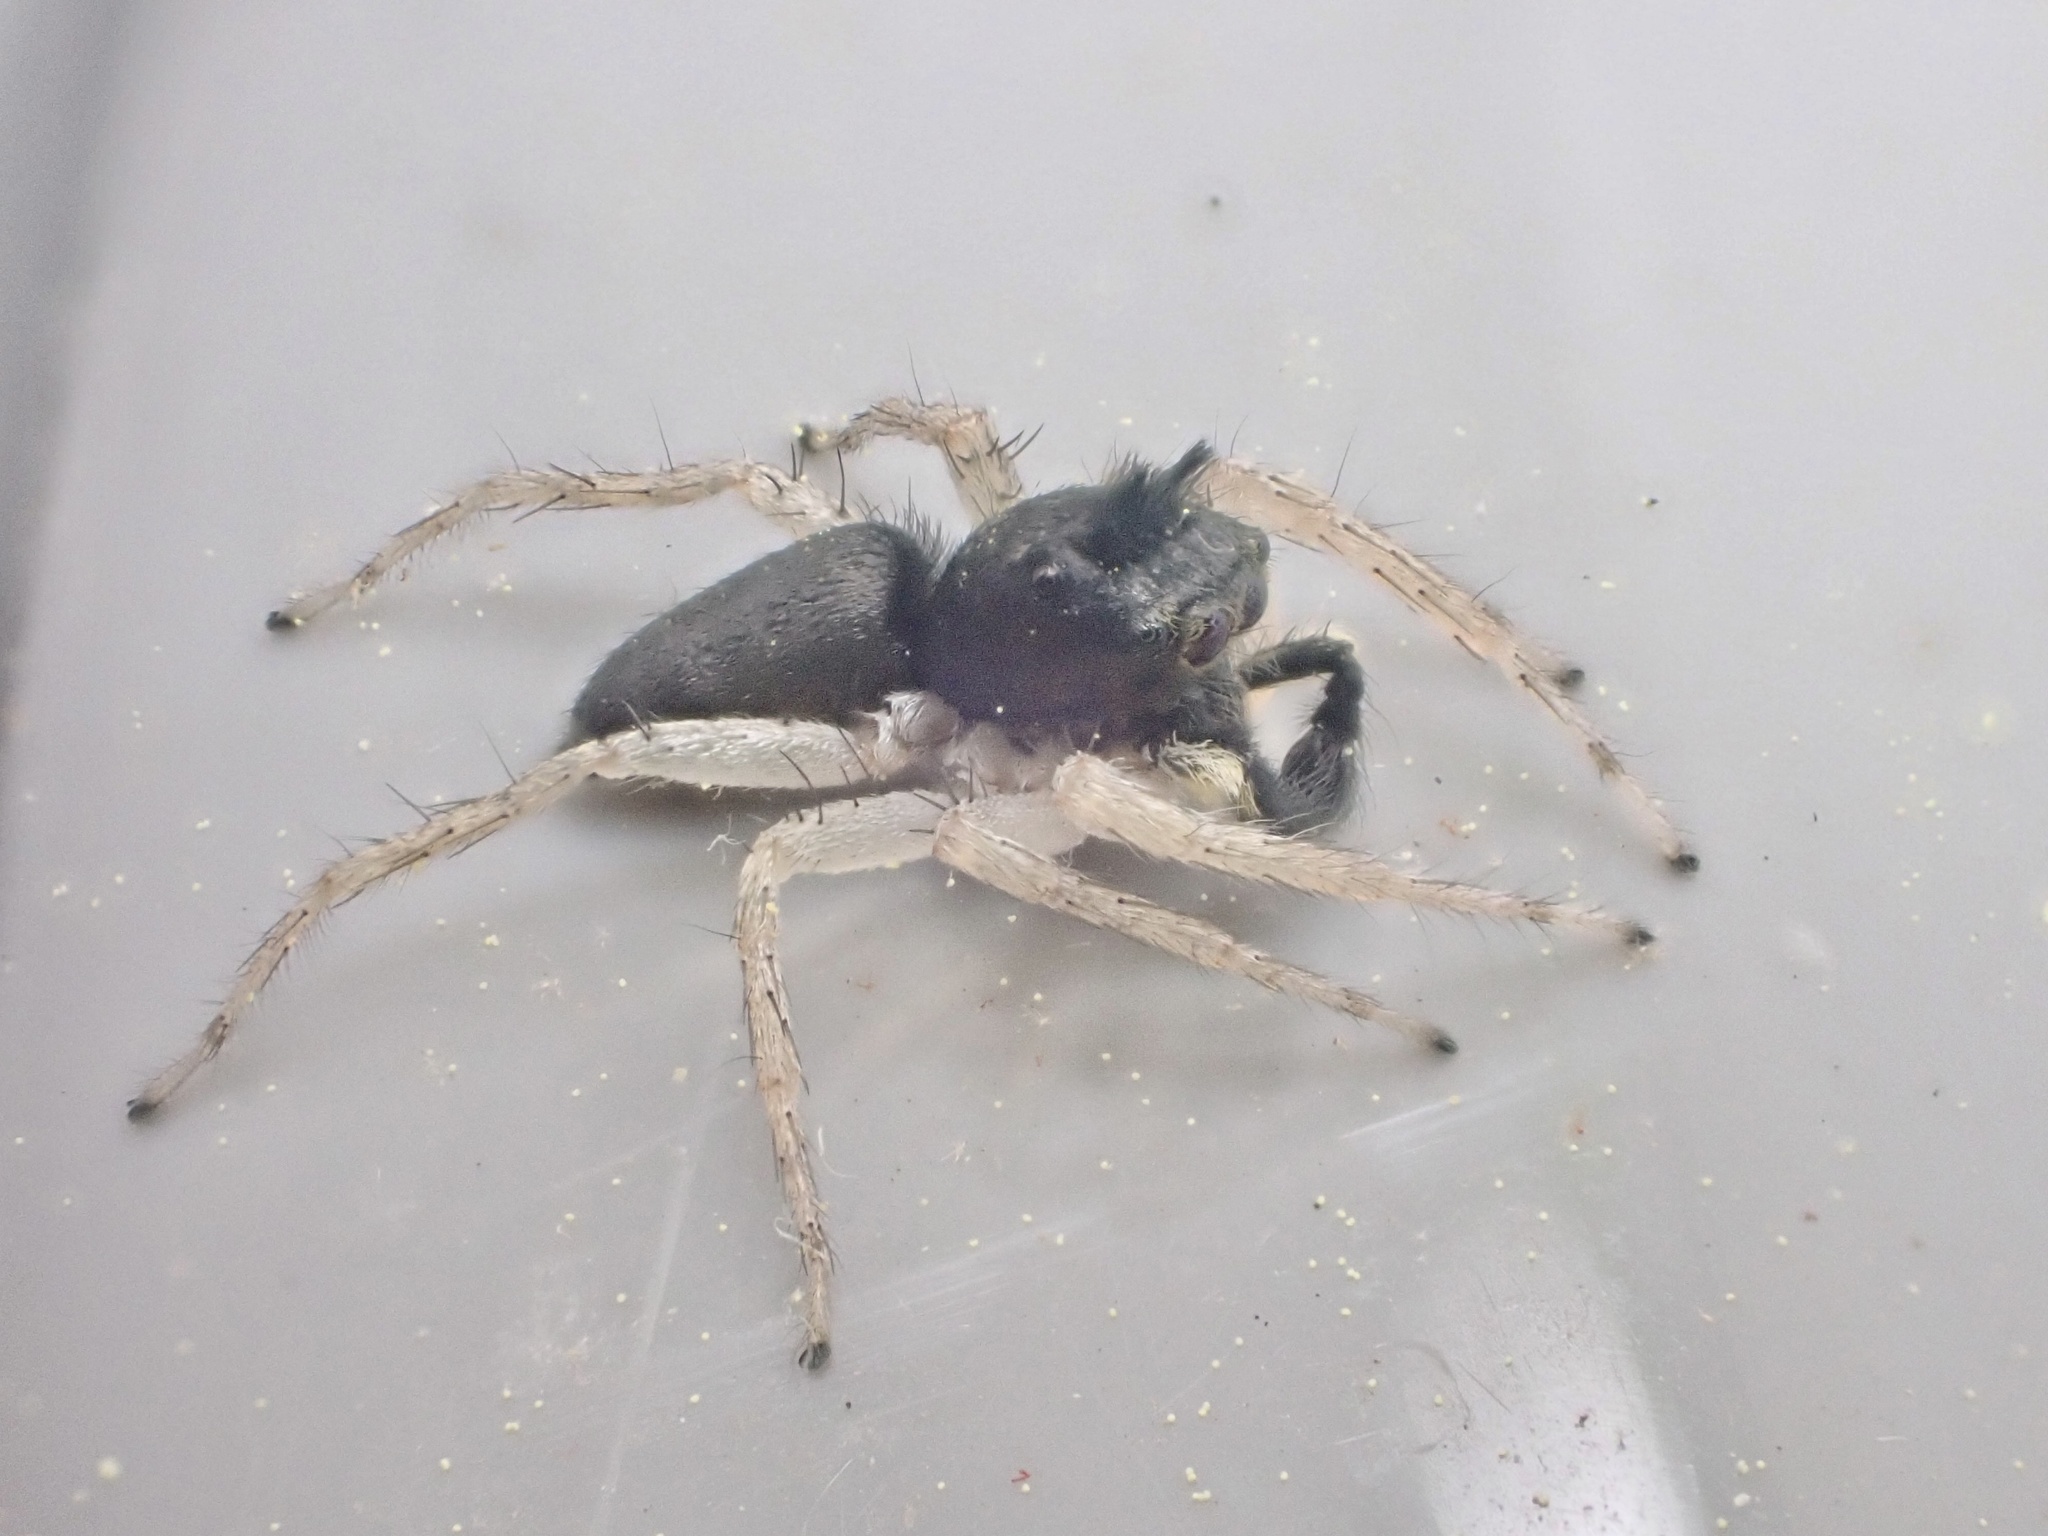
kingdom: Animalia
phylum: Arthropoda
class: Arachnida
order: Araneae
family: Salticidae
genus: Maevia
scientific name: Maevia inclemens
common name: Dimorphic jumper
